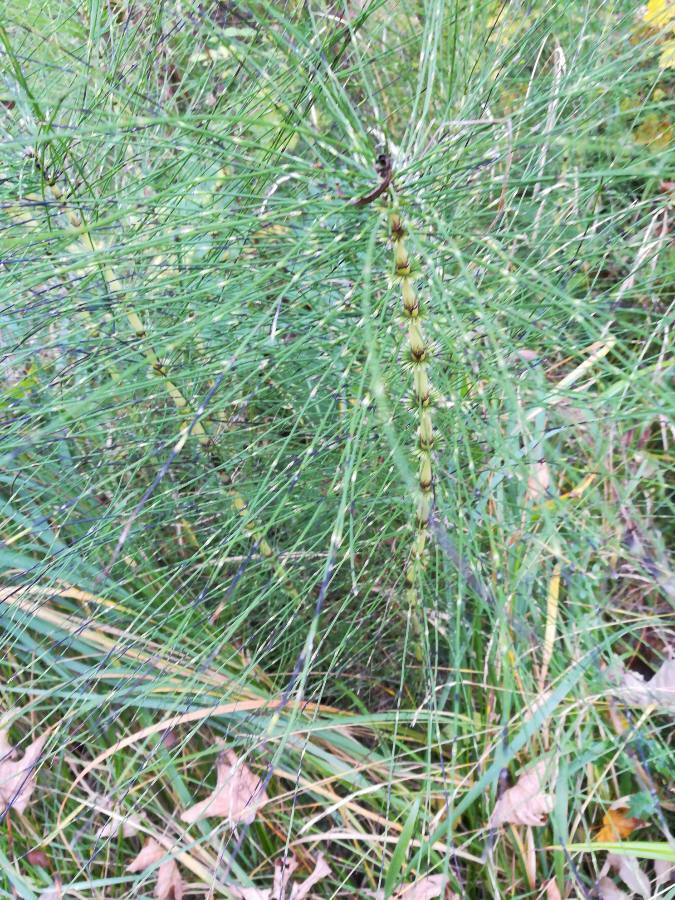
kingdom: Plantae
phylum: Tracheophyta
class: Polypodiopsida
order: Equisetales
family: Equisetaceae
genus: Equisetum
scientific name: Equisetum telmateia
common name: Great horsetail
